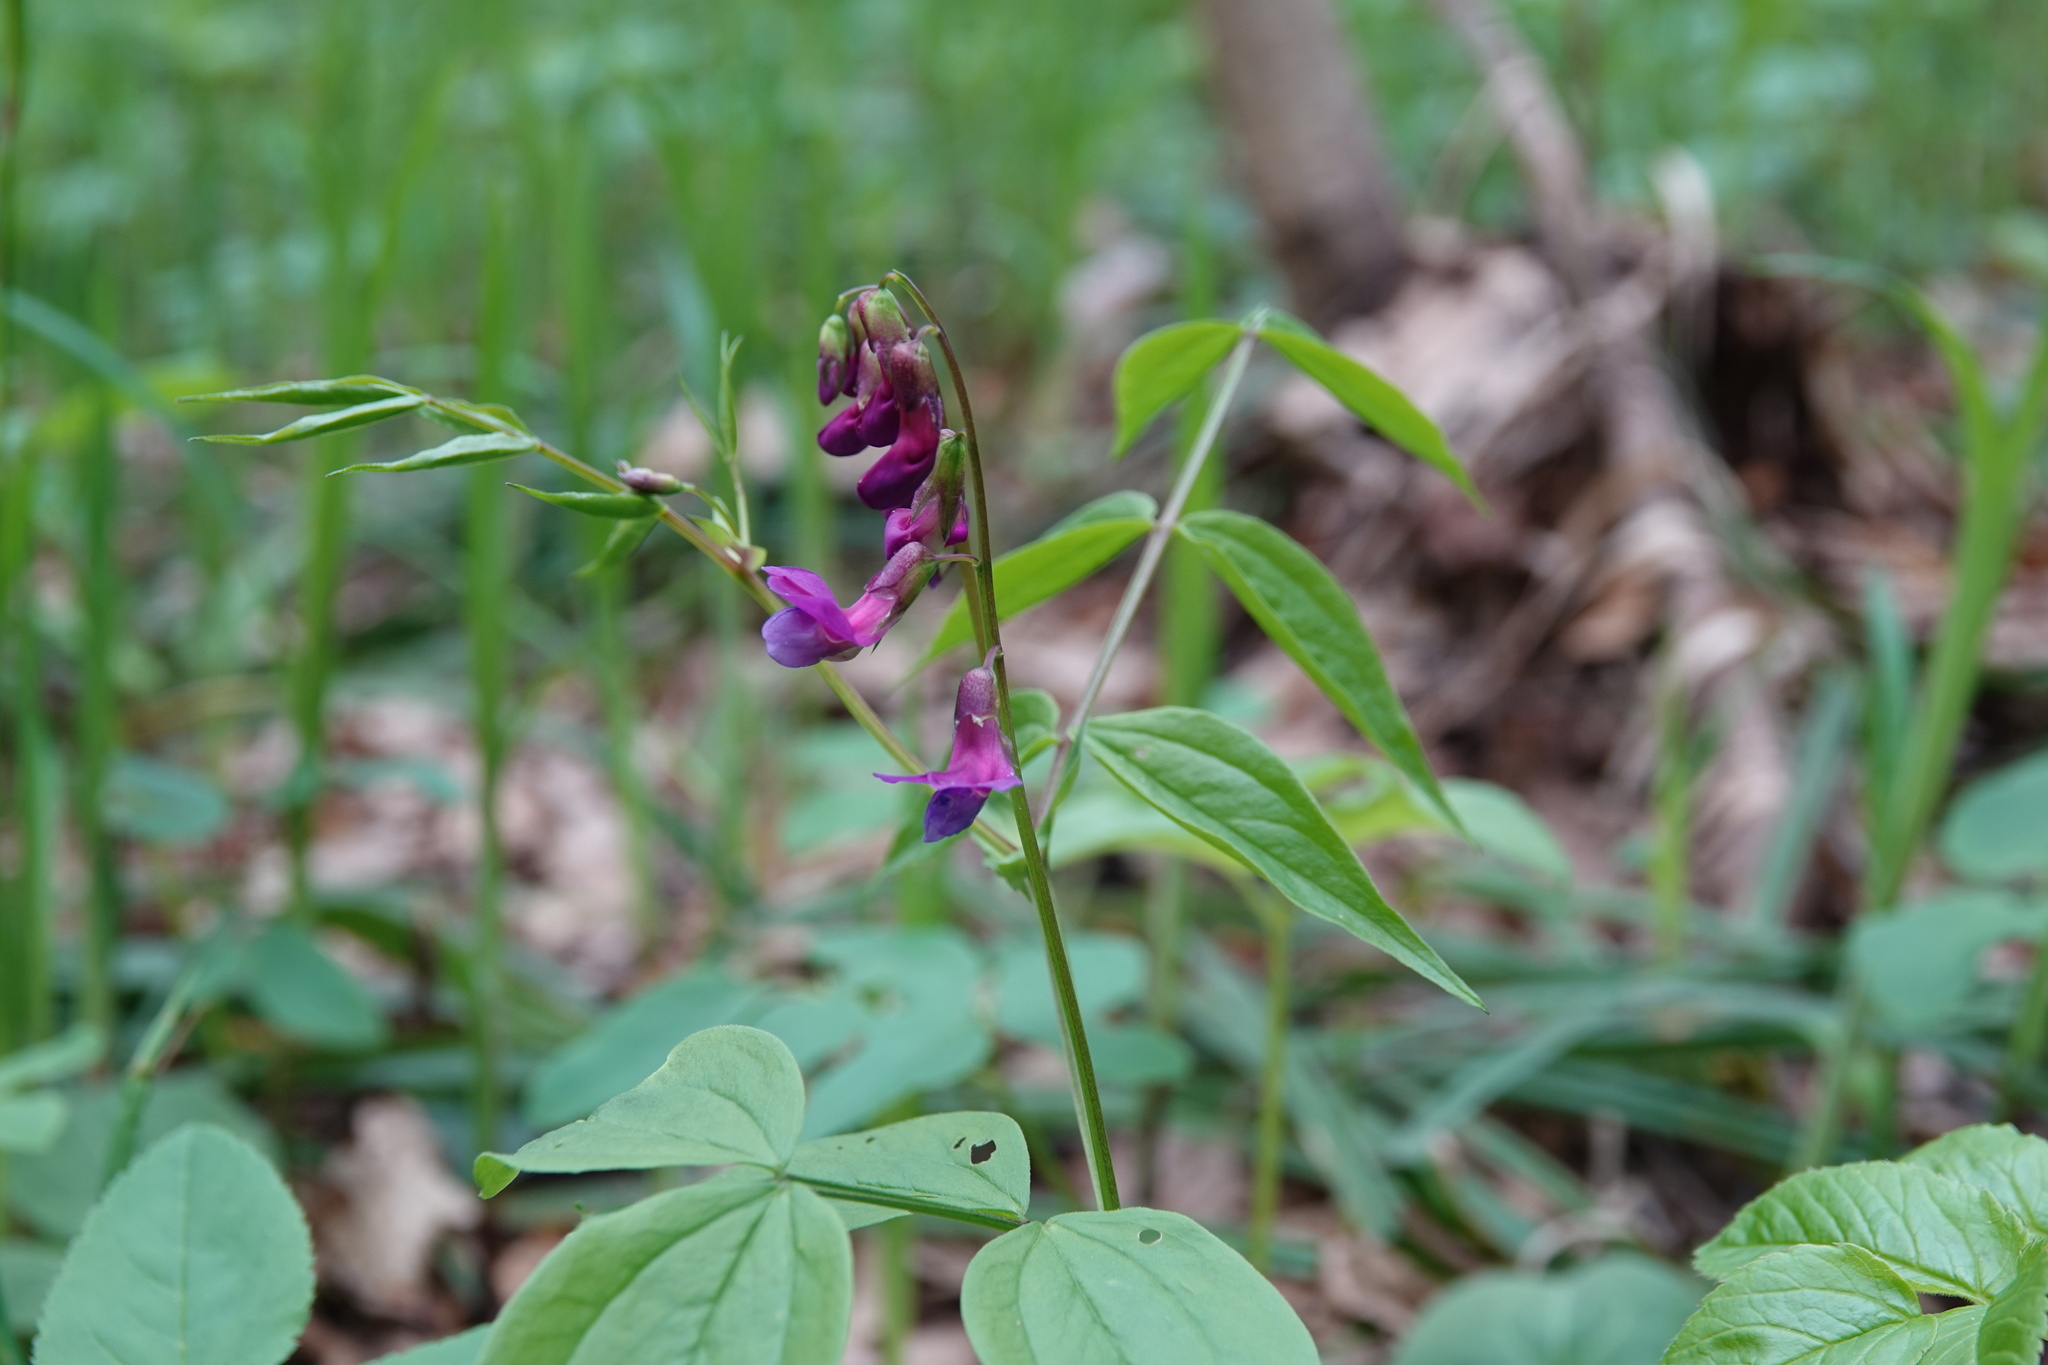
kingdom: Plantae
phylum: Tracheophyta
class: Magnoliopsida
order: Fabales
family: Fabaceae
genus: Lathyrus
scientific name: Lathyrus vernus
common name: Spring pea
